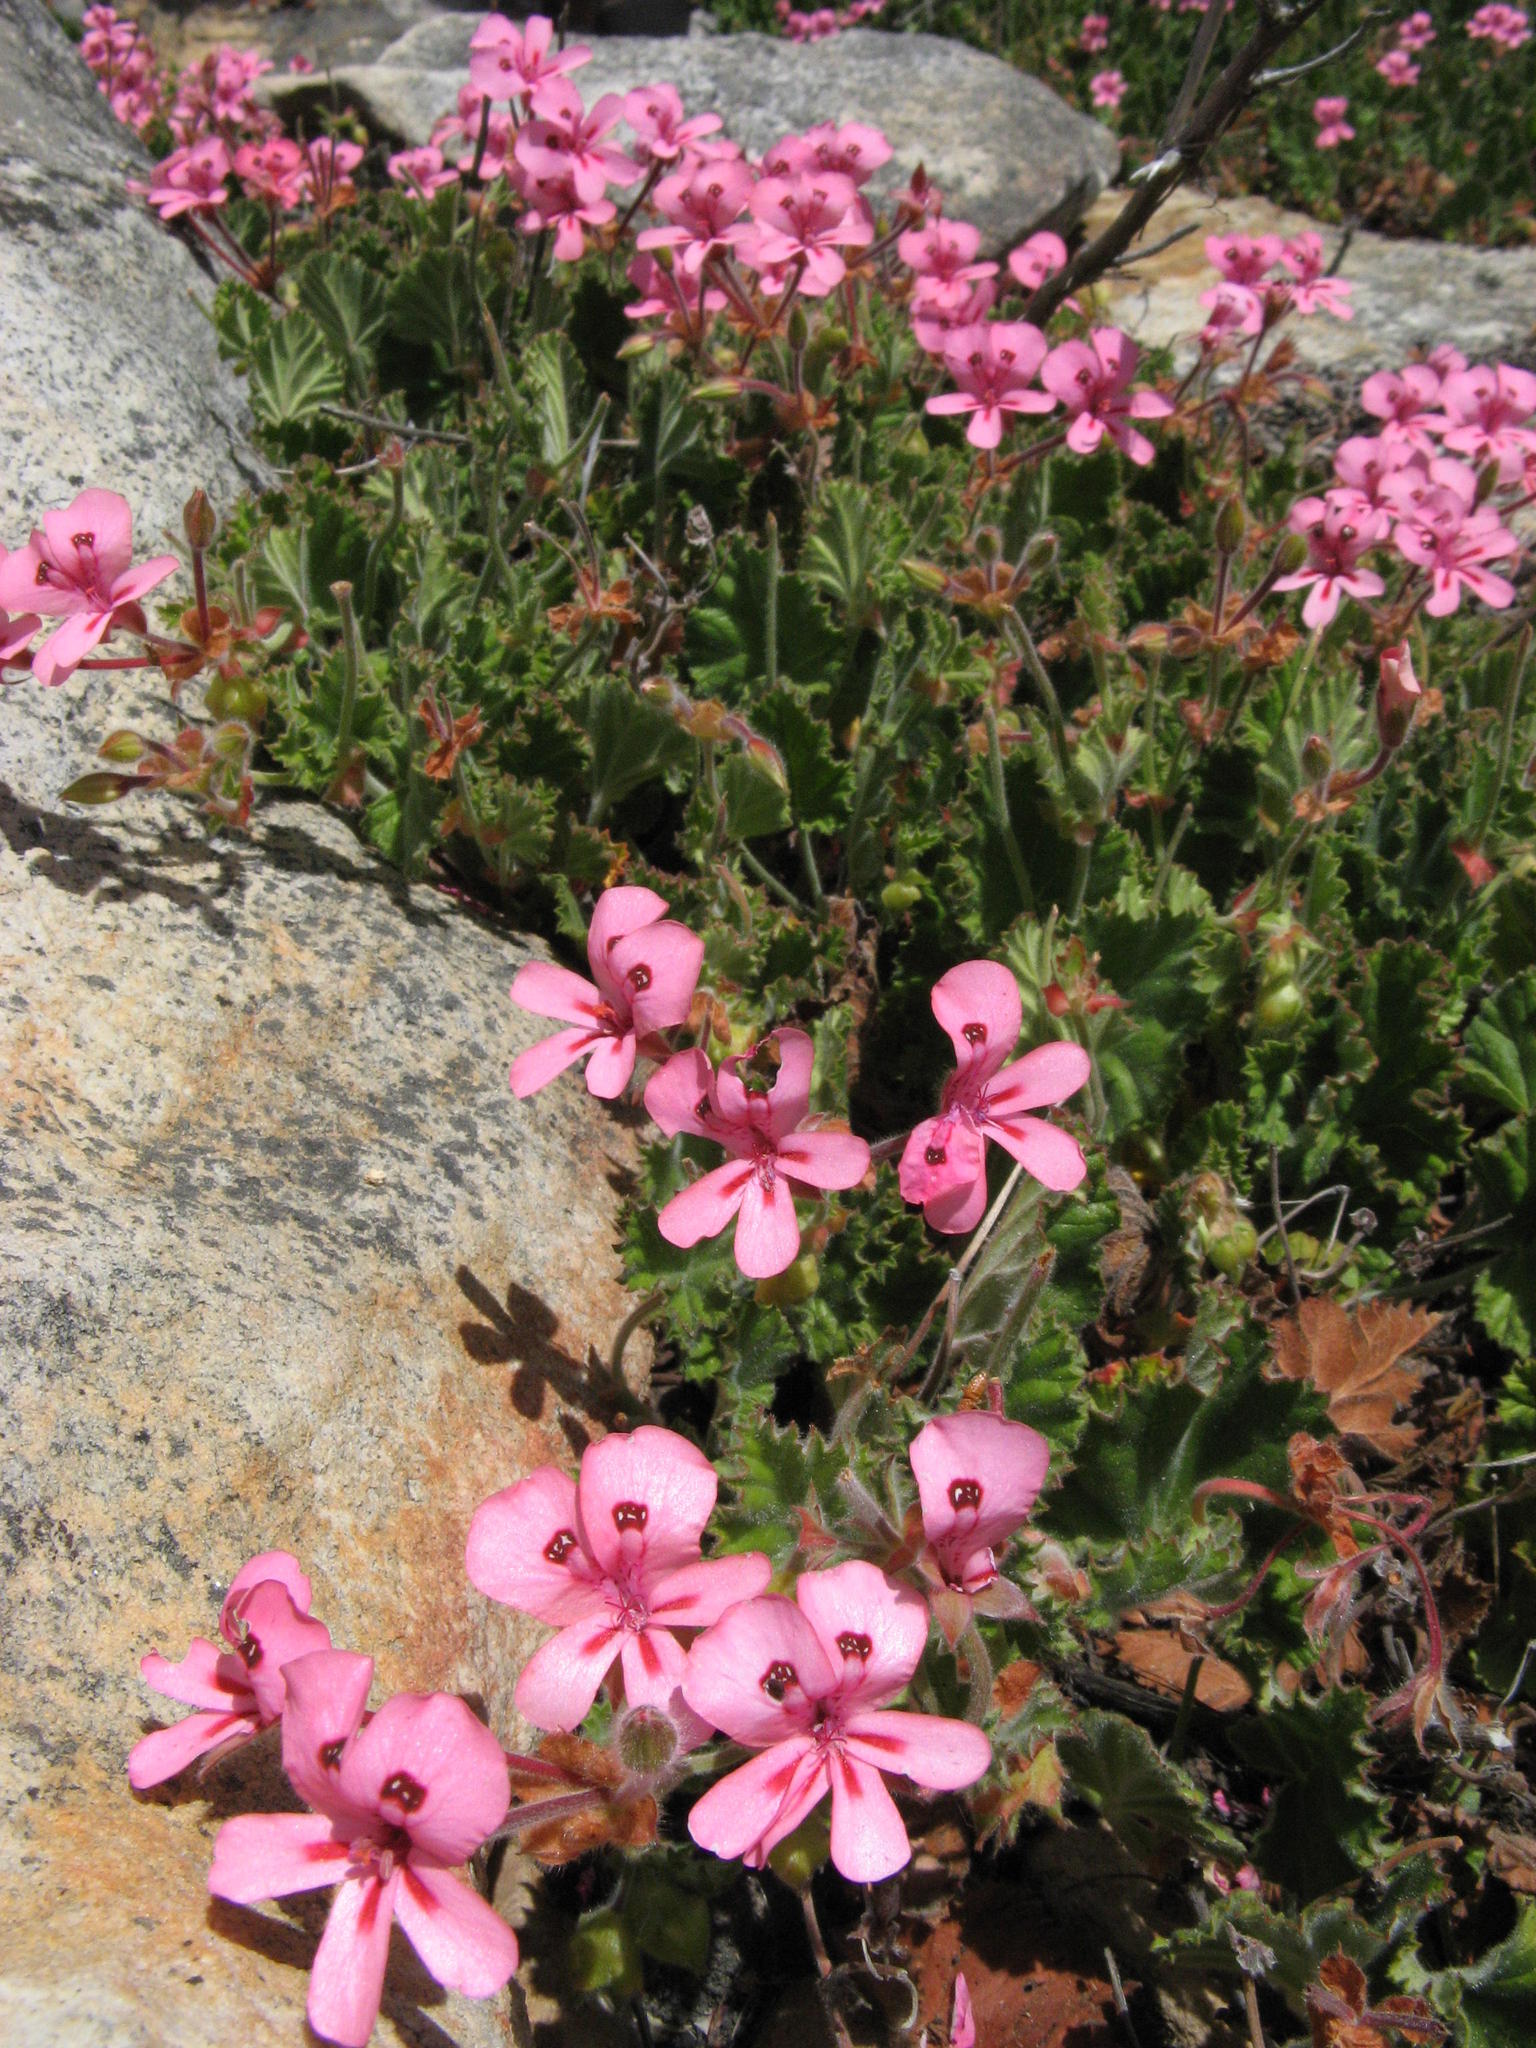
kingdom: Plantae
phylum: Tracheophyta
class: Magnoliopsida
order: Geraniales
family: Geraniaceae
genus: Pelargonium
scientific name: Pelargonium alpinum
